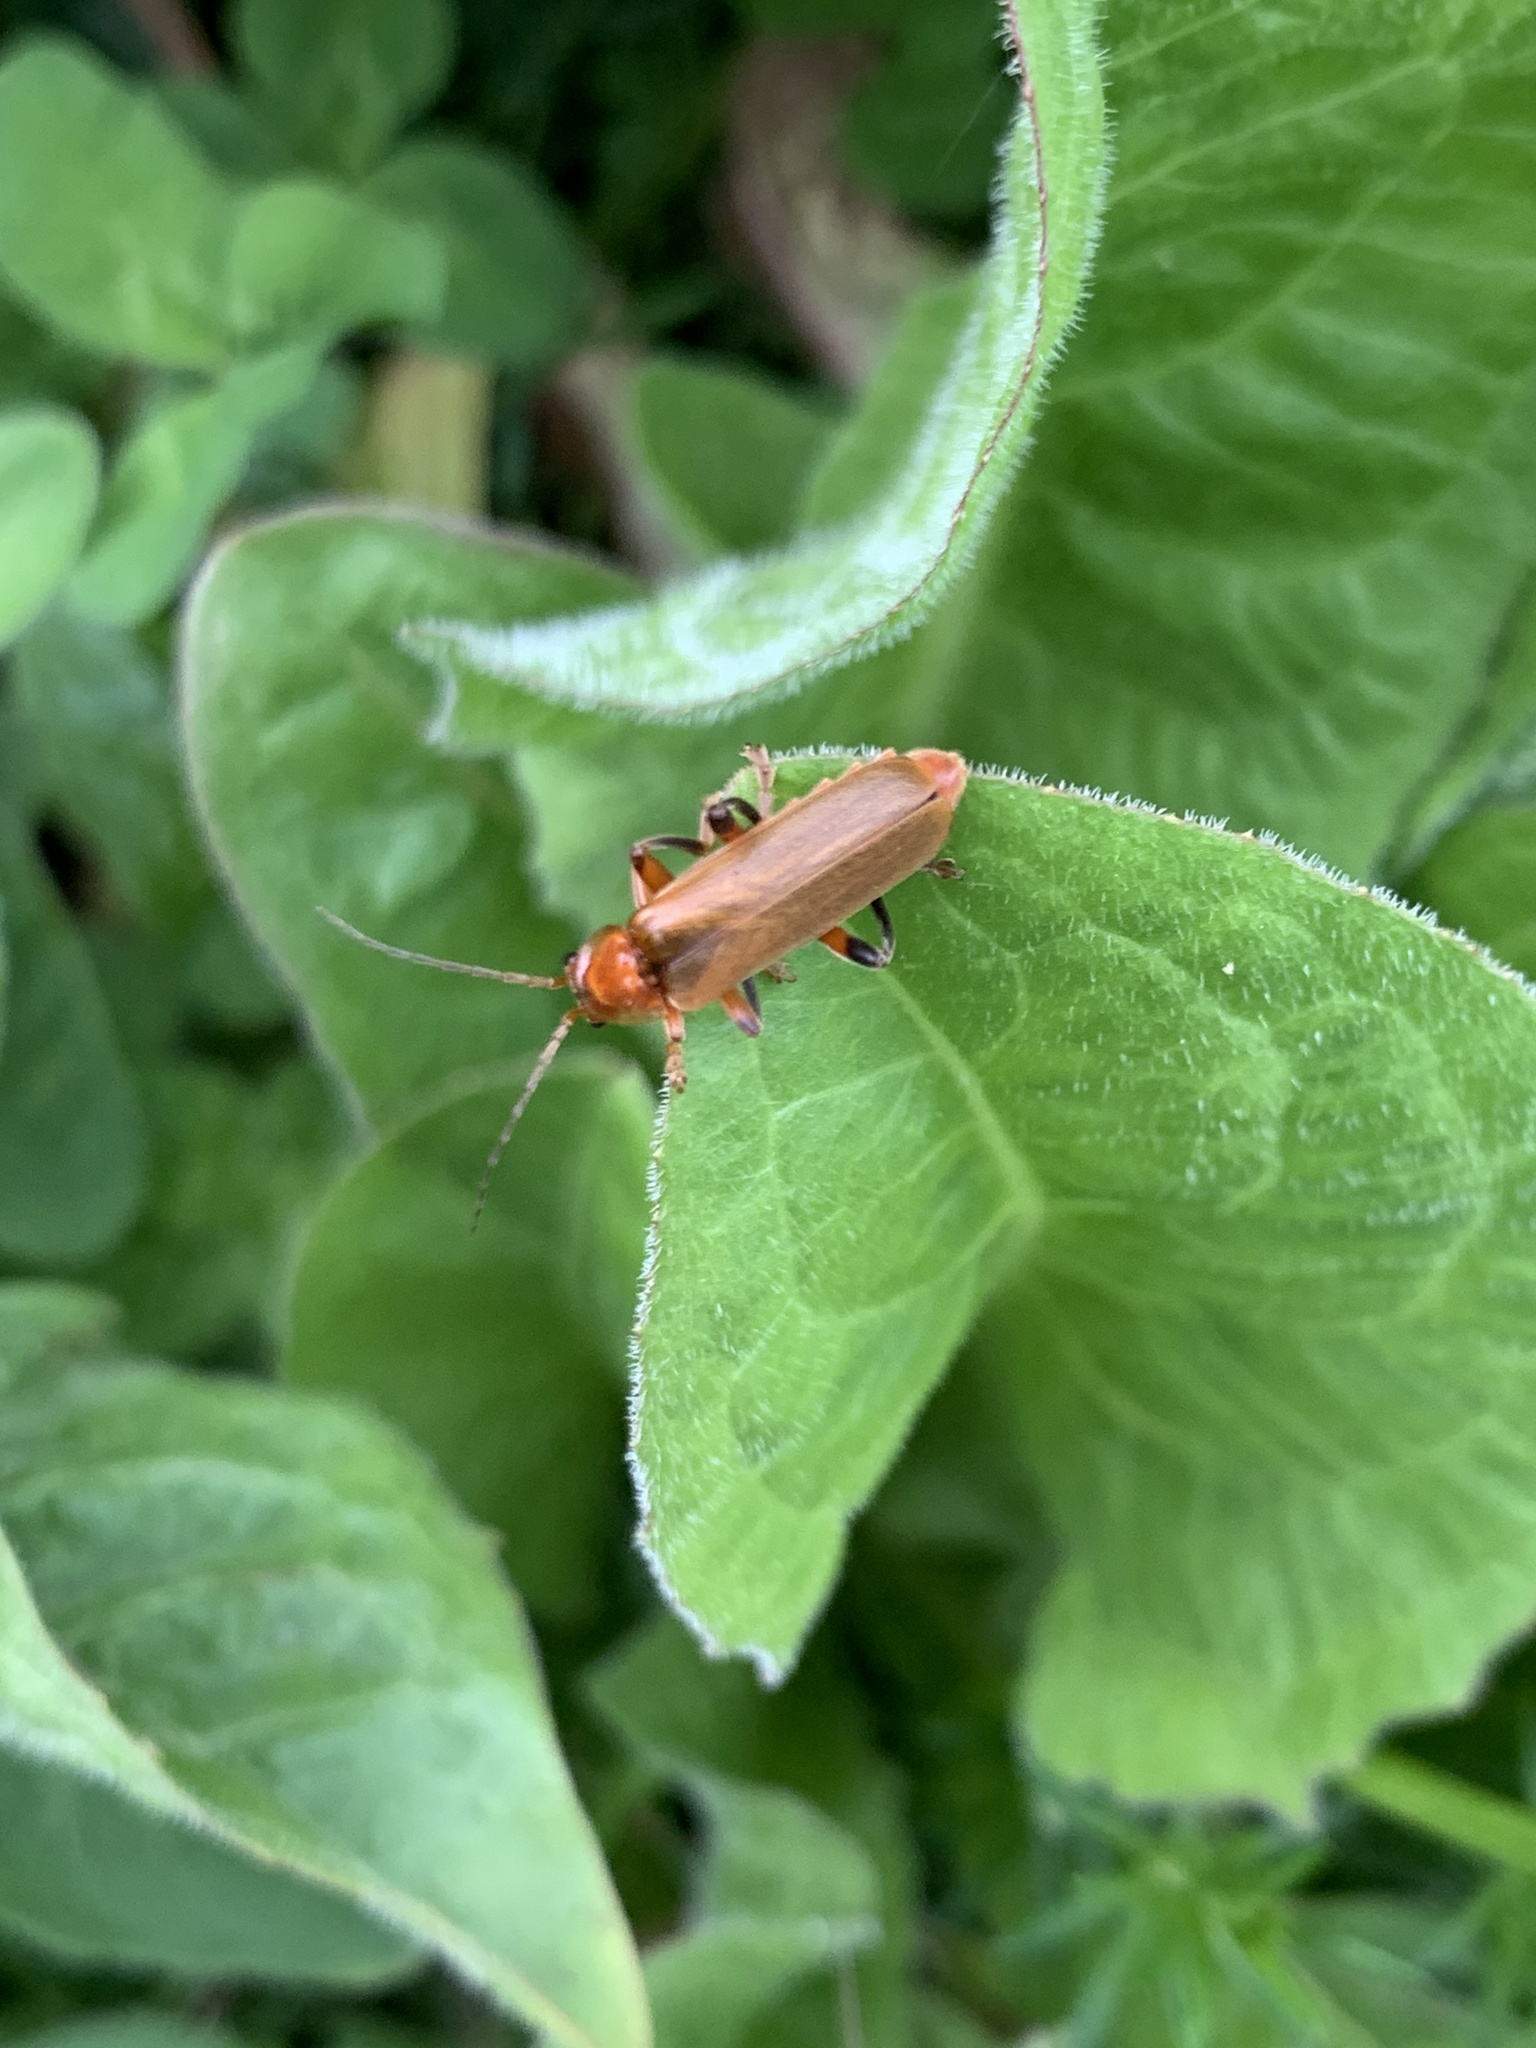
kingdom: Animalia
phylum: Arthropoda
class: Insecta
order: Coleoptera
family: Cantharidae
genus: Cantharis
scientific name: Cantharis livida
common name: Livid soldier beetle
